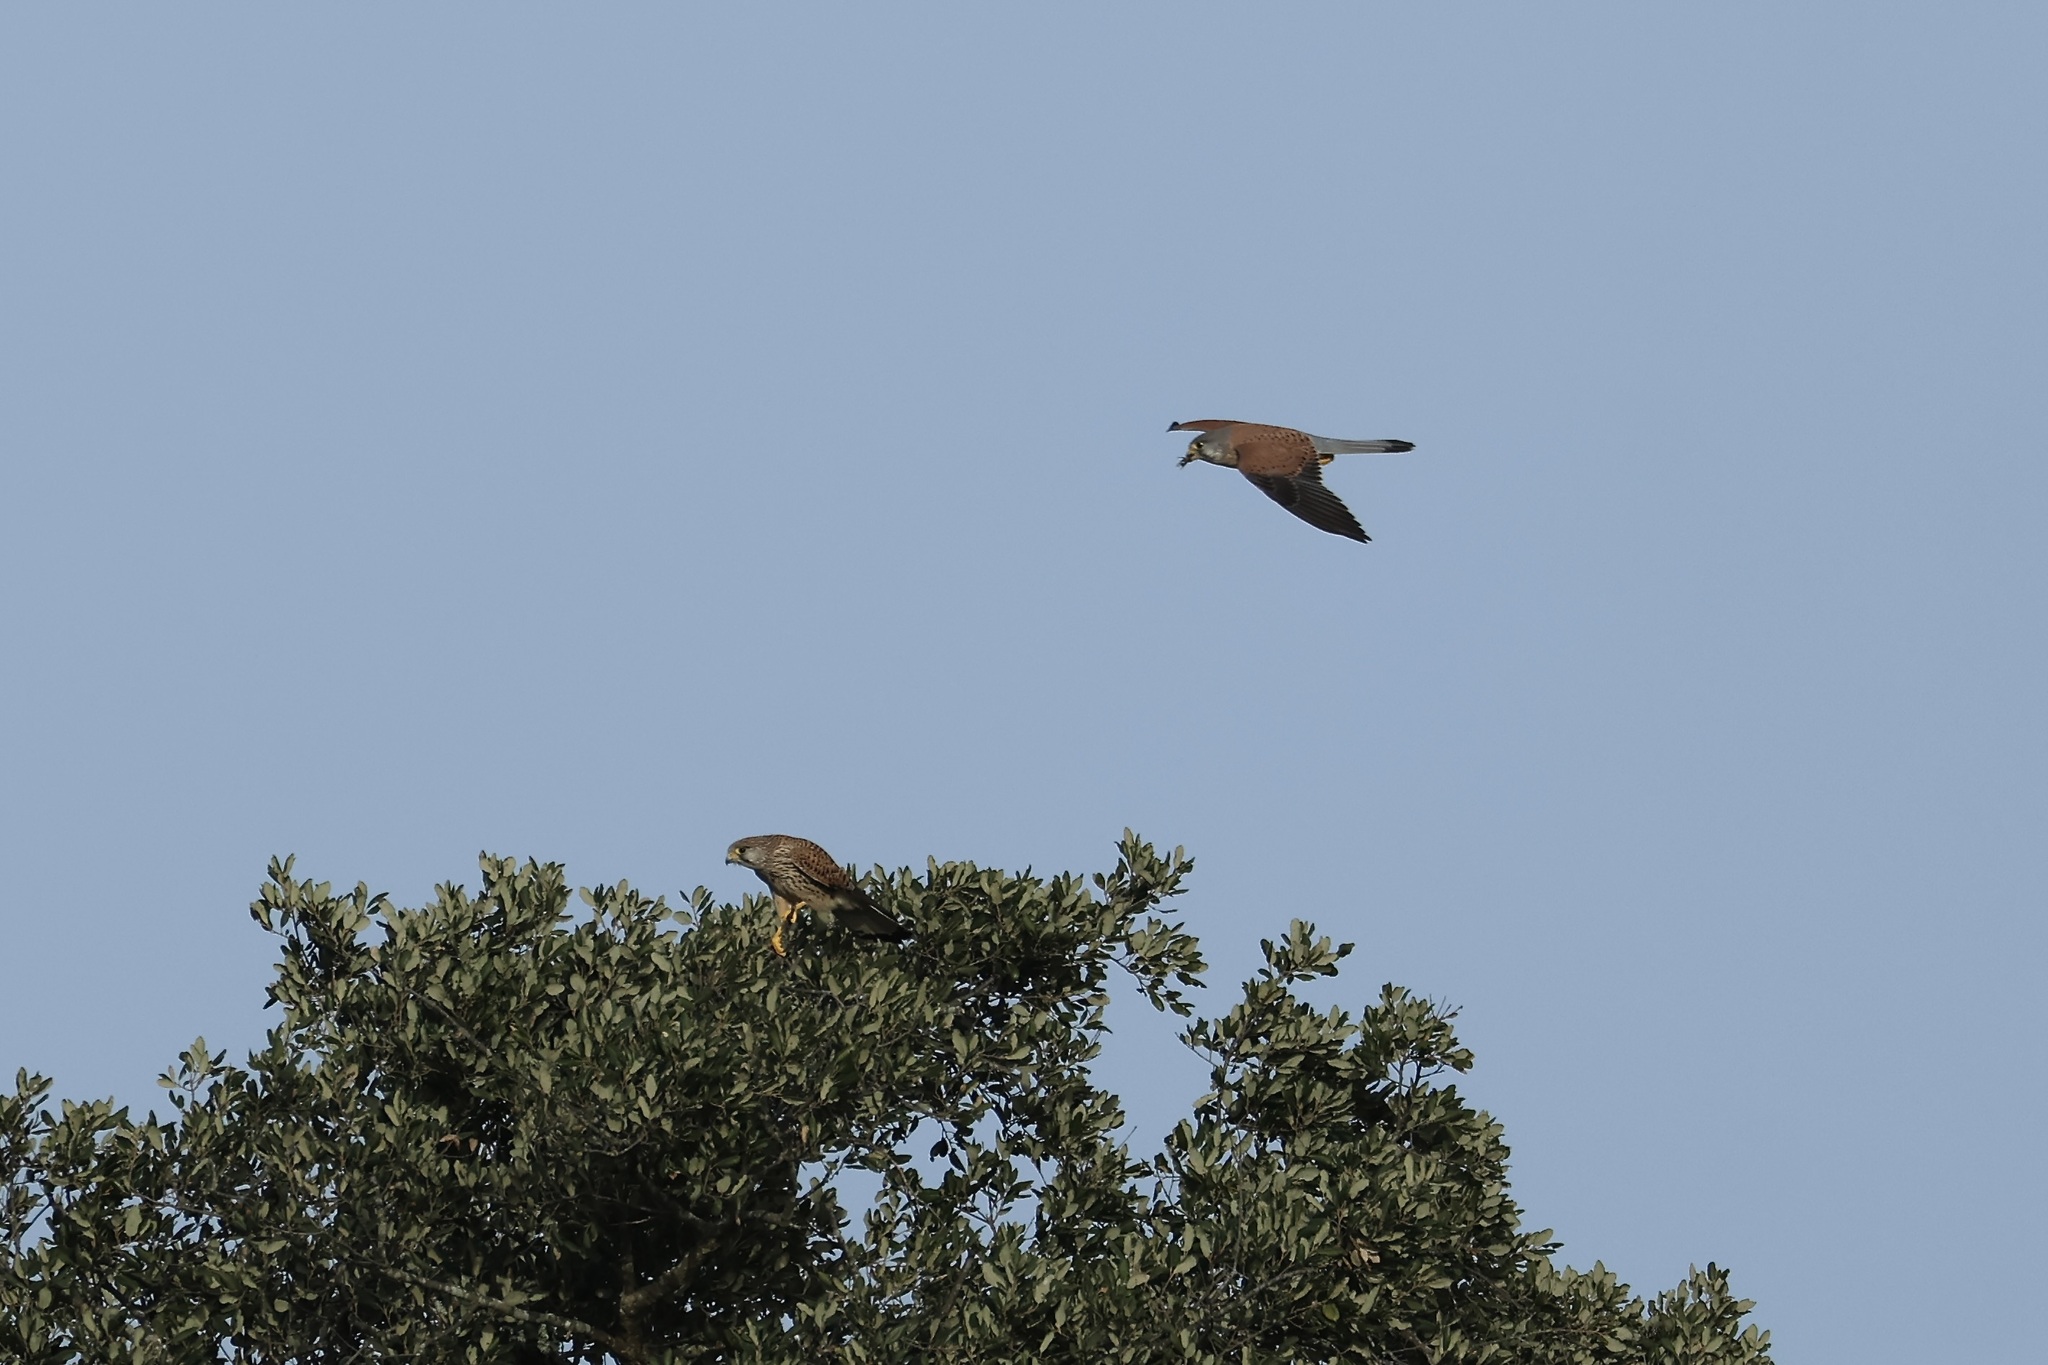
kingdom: Animalia
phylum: Chordata
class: Aves
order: Falconiformes
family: Falconidae
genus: Falco
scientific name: Falco tinnunculus
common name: Common kestrel
